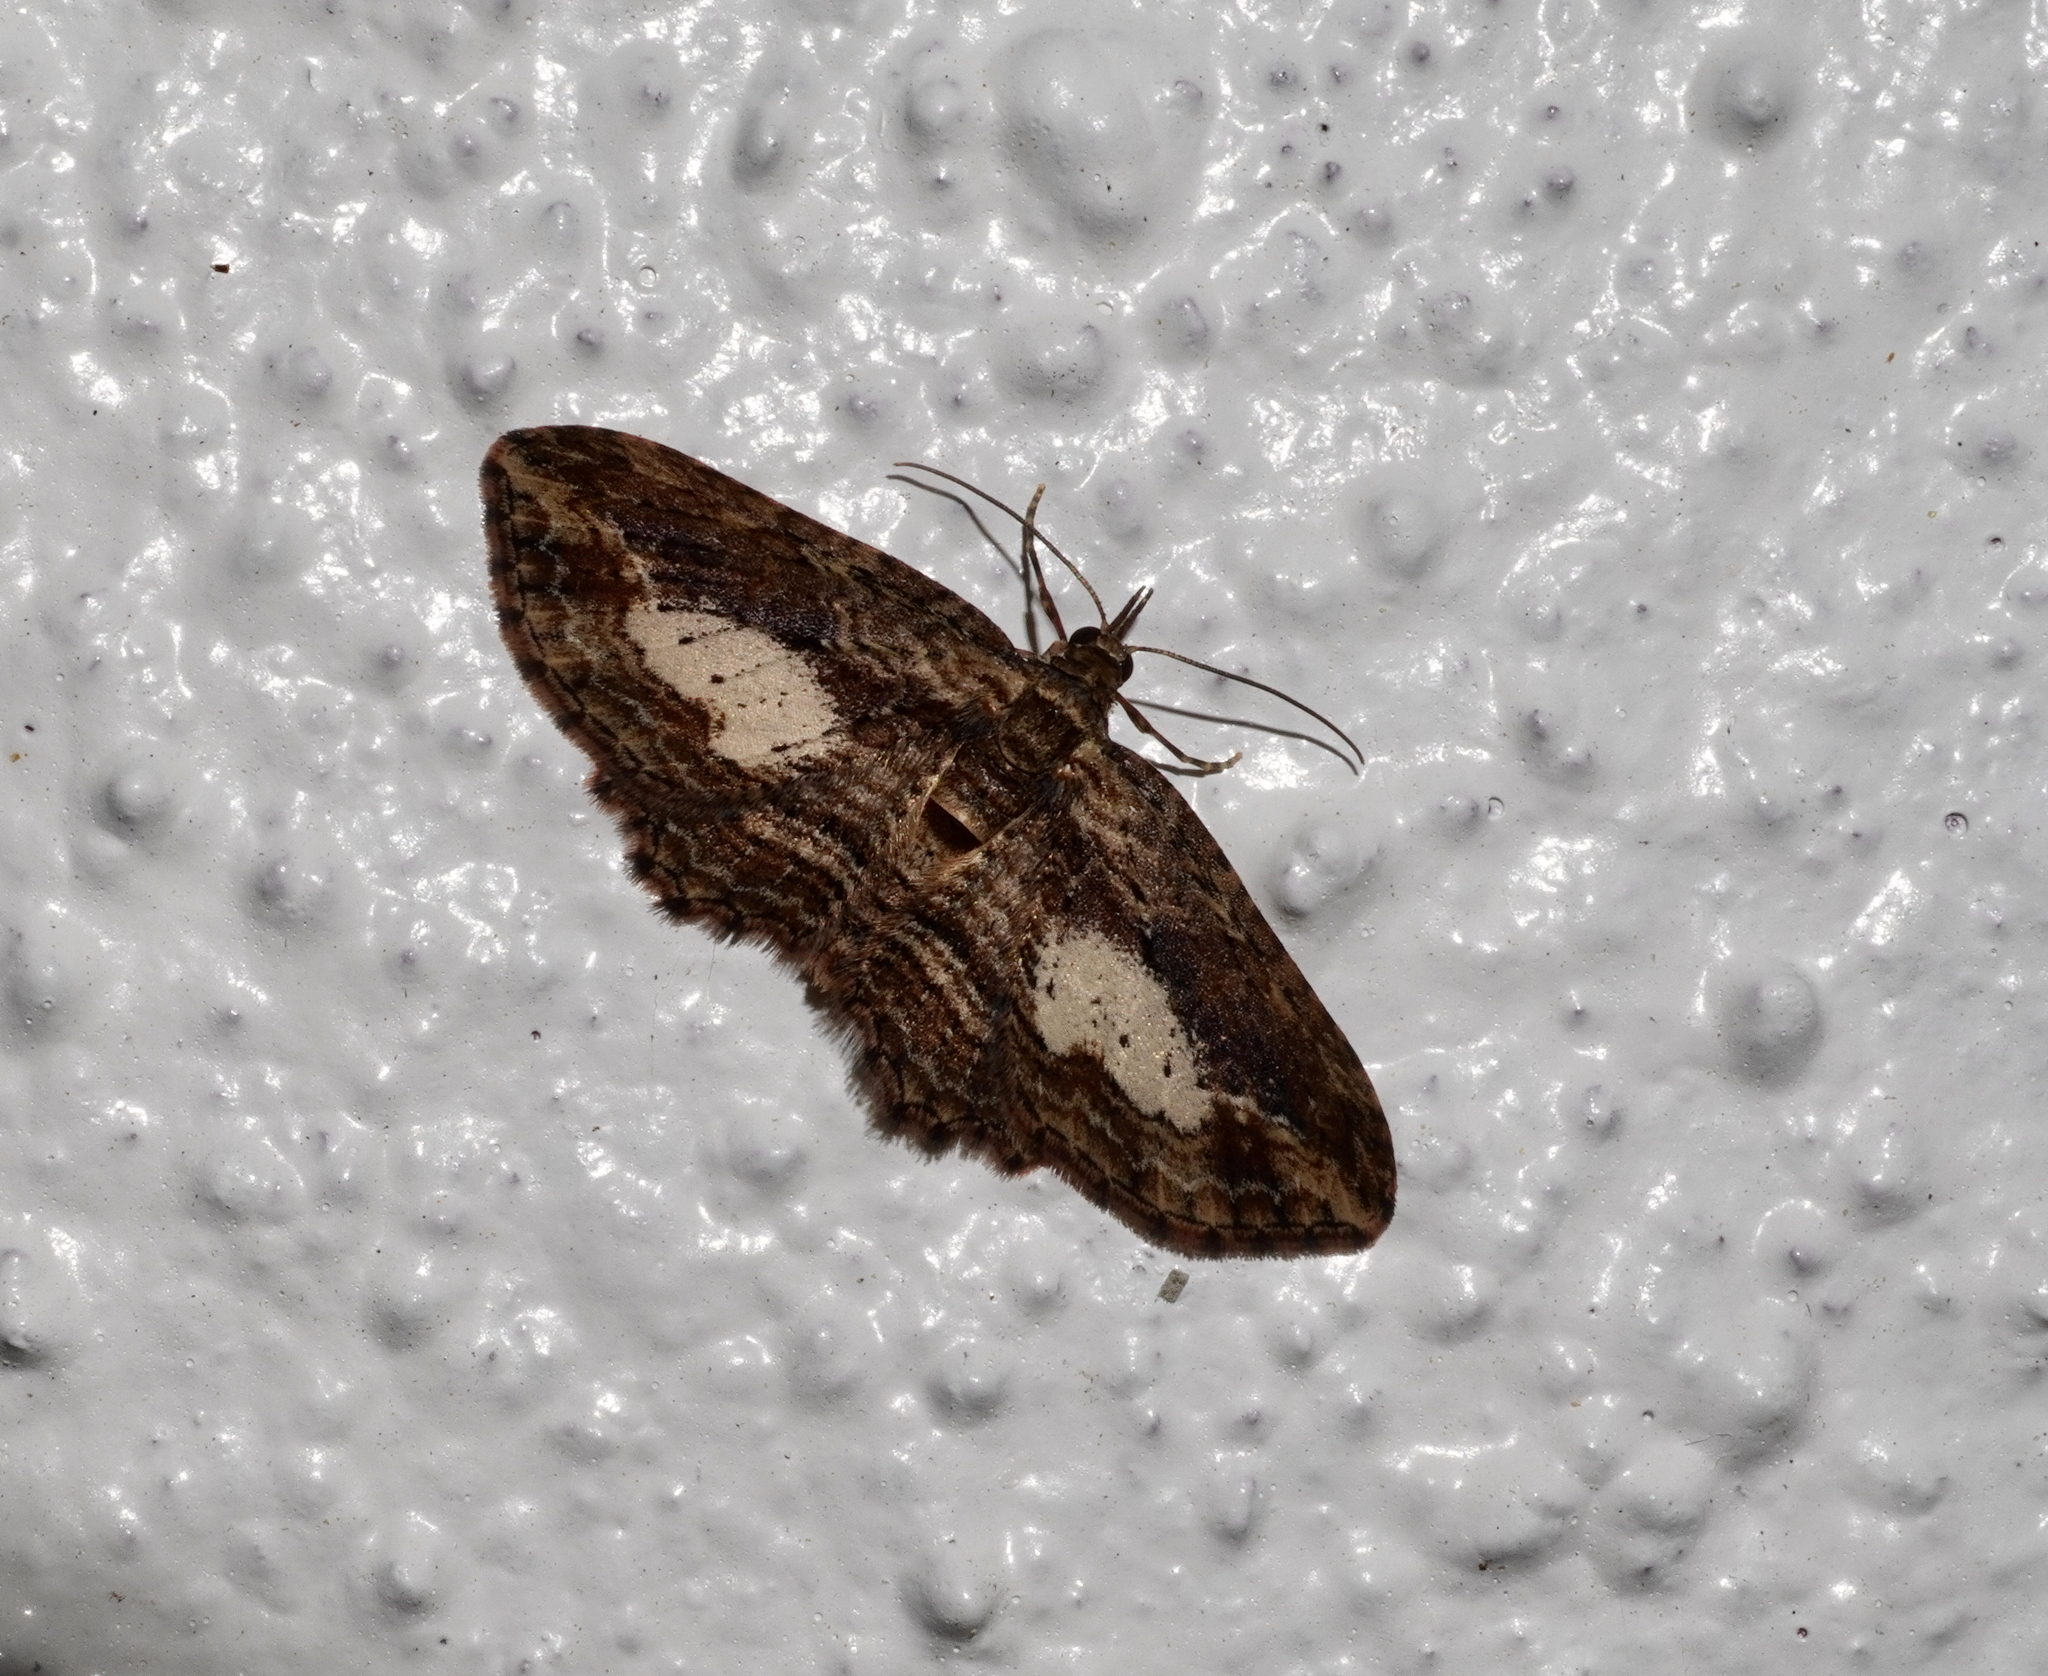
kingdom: Animalia
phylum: Arthropoda
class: Insecta
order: Lepidoptera
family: Geometridae
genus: Chloroclystis
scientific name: Chloroclystis filata
